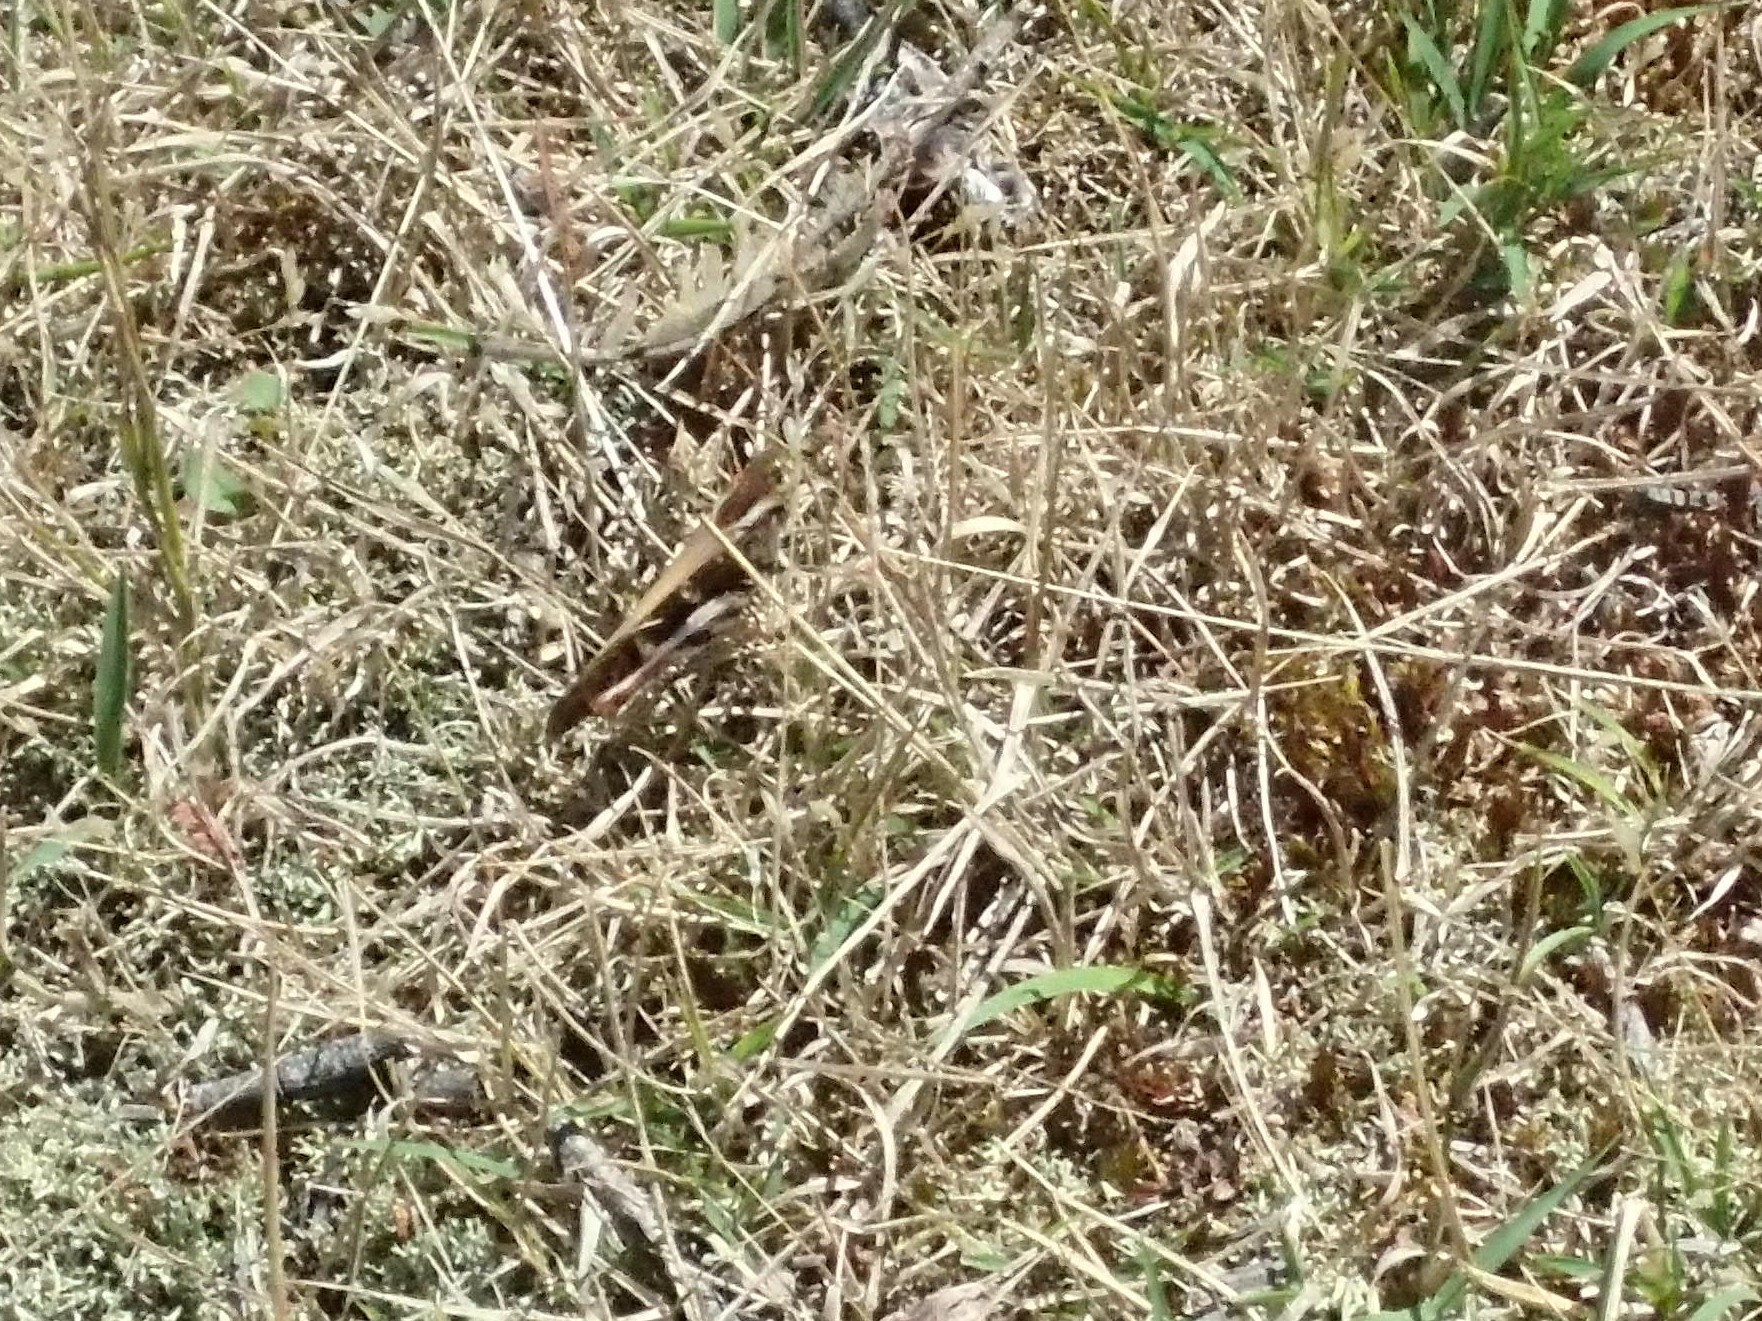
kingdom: Animalia
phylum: Arthropoda
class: Insecta
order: Orthoptera
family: Acrididae
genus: Gastrimargus
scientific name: Gastrimargus musicus
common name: Yellow-winged locust
